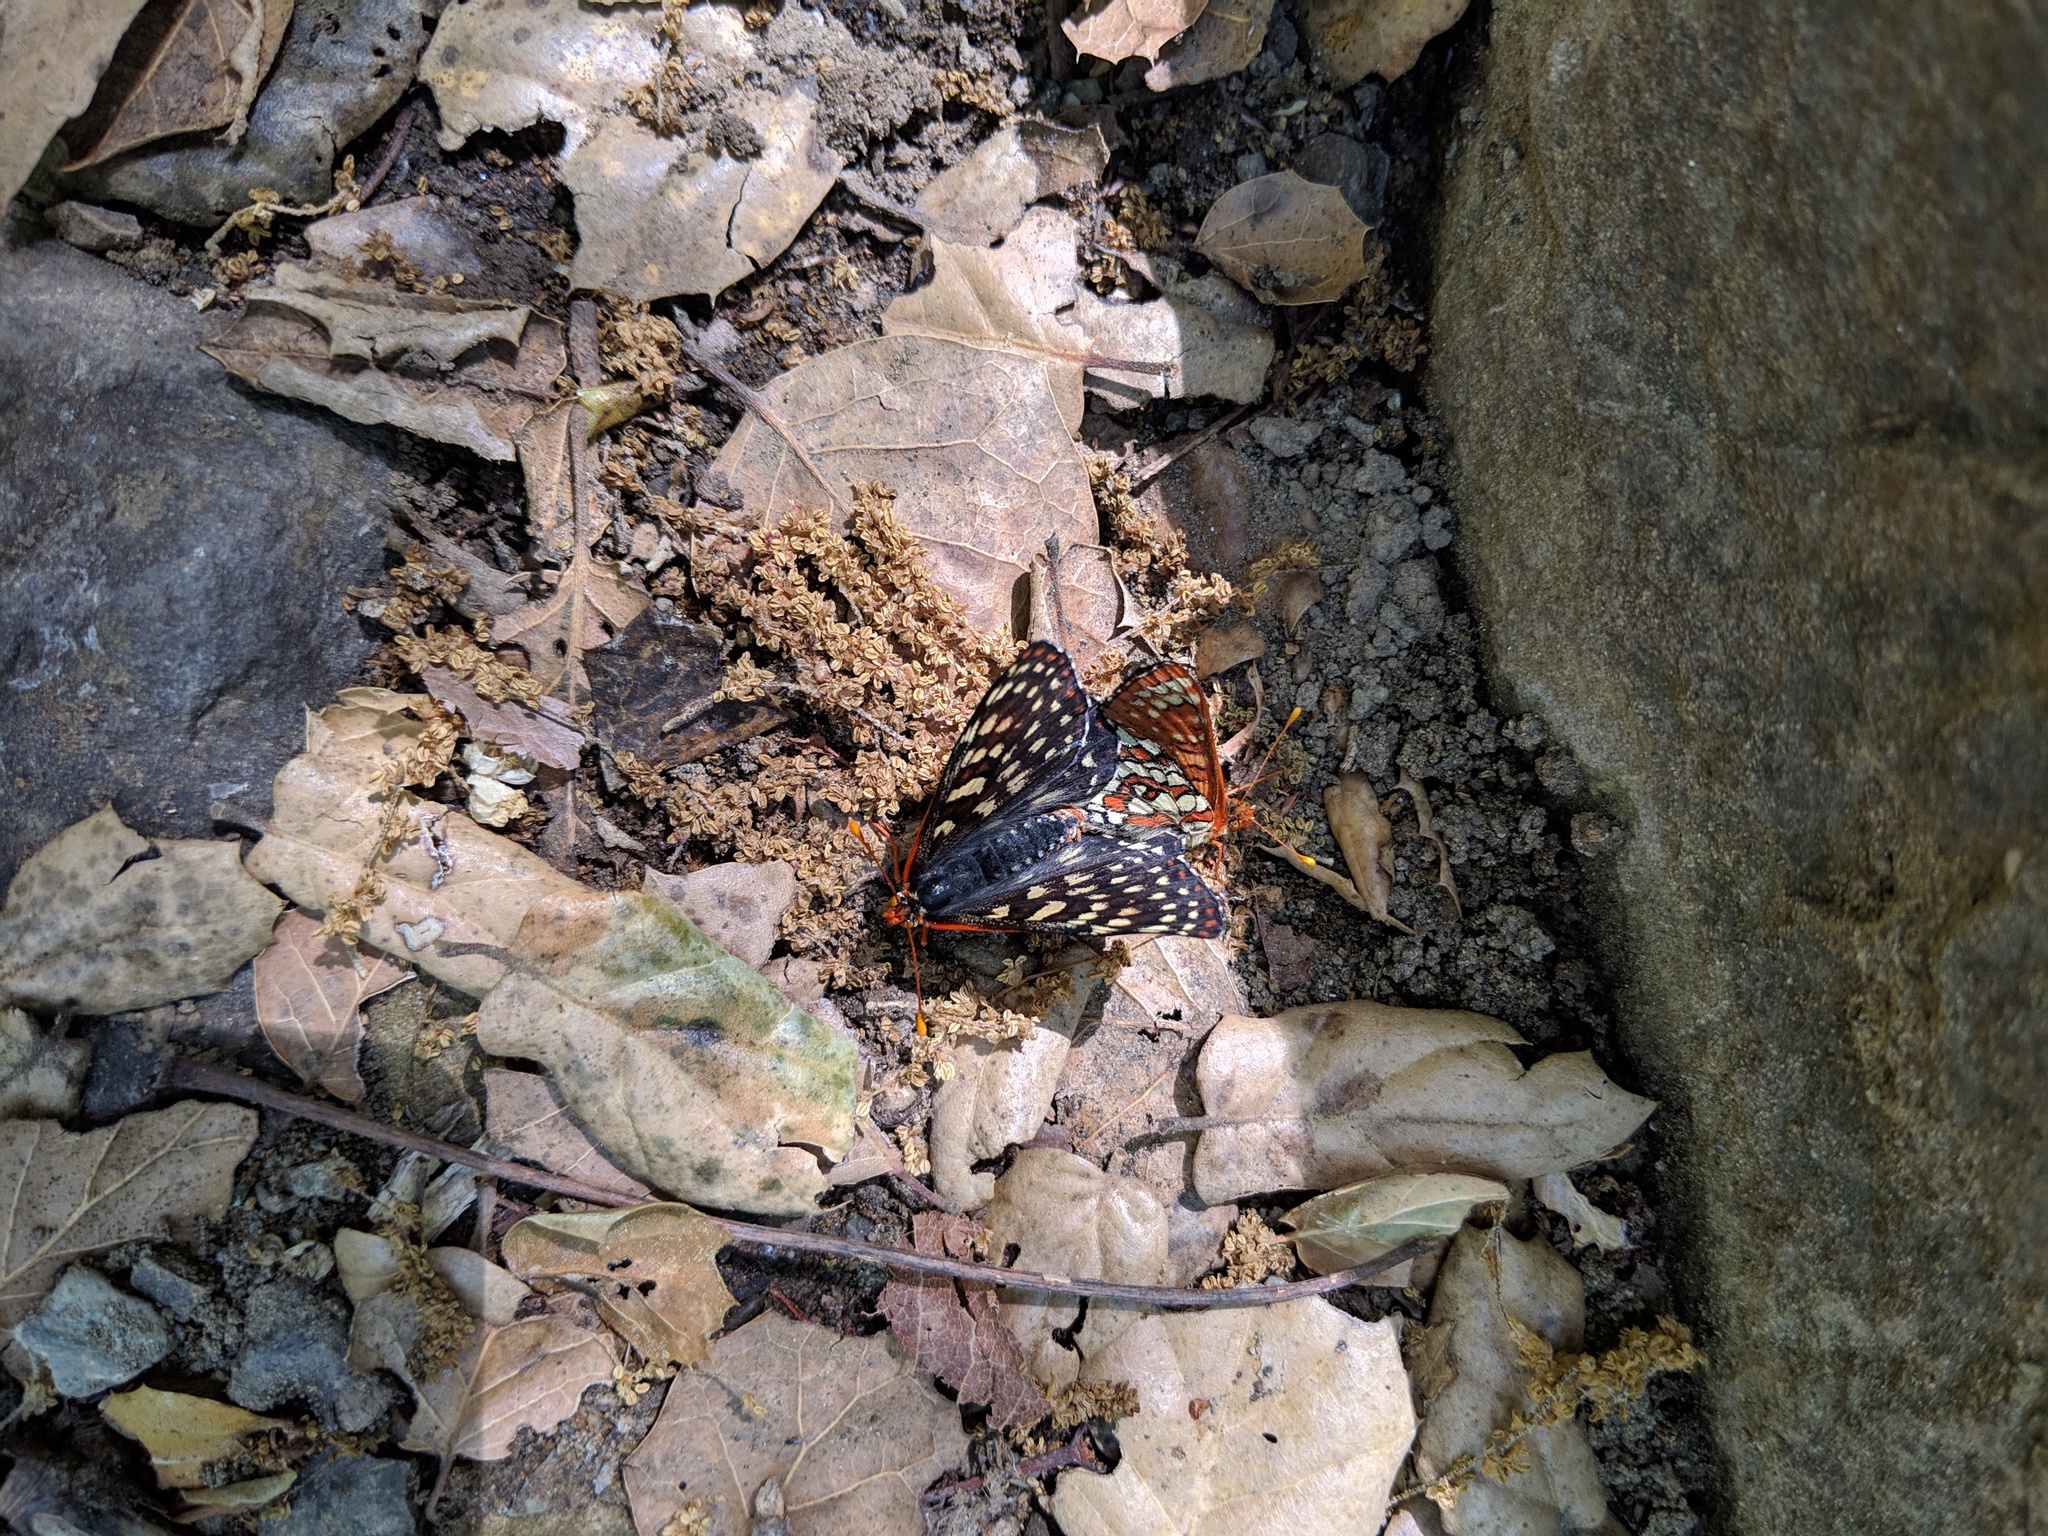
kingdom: Animalia
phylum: Arthropoda
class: Insecta
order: Lepidoptera
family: Nymphalidae
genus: Occidryas
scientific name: Occidryas chalcedona
